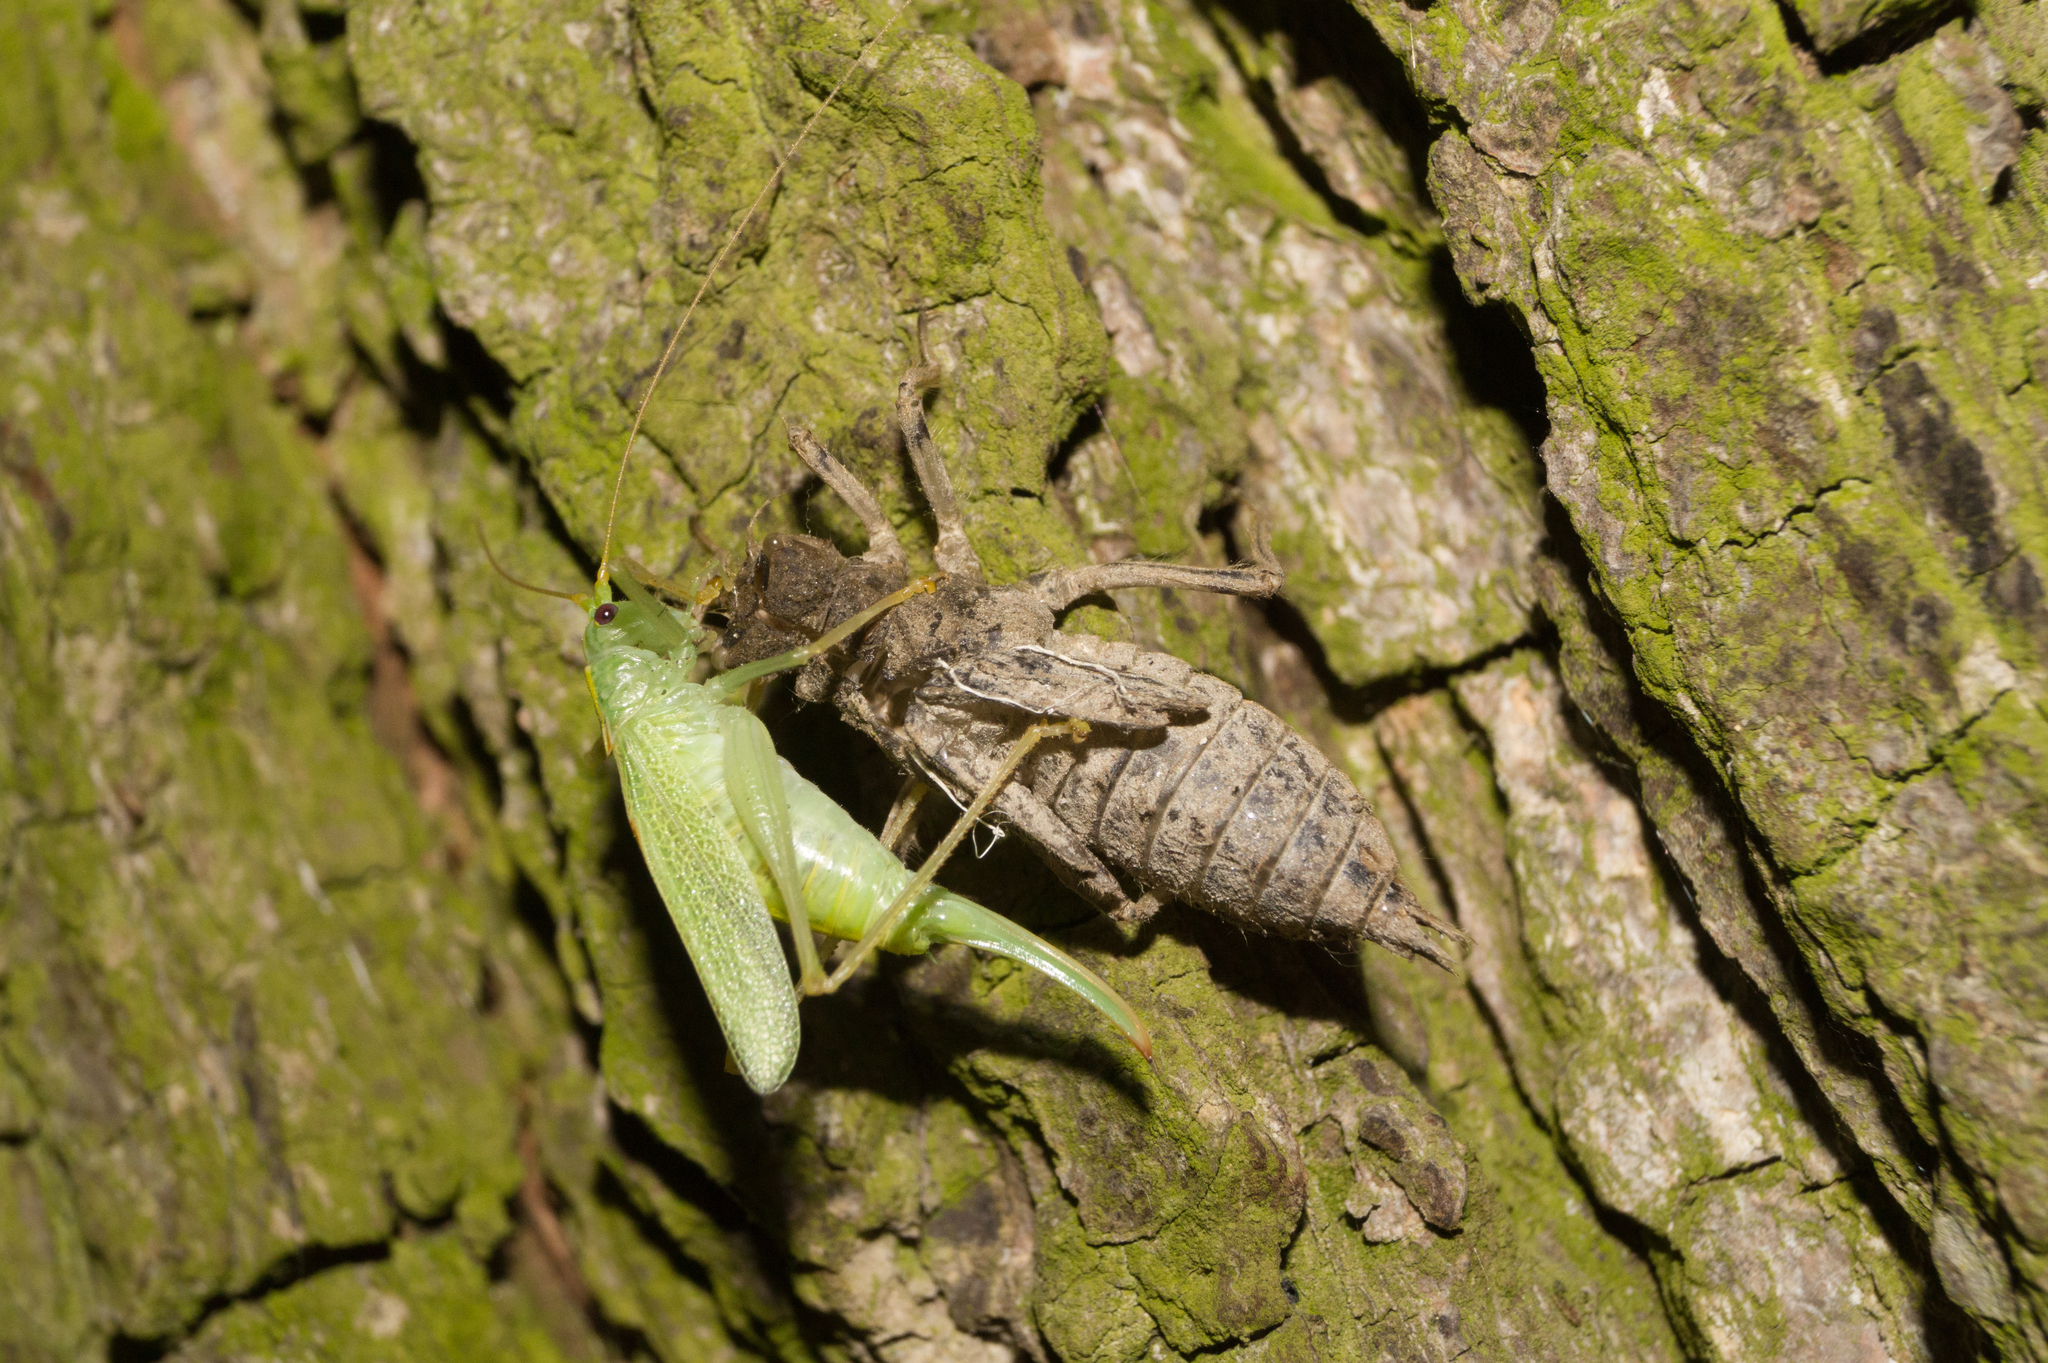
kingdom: Animalia
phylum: Arthropoda
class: Insecta
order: Orthoptera
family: Tettigoniidae
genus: Meconema
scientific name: Meconema thalassinum
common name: Oak bush-cricket
